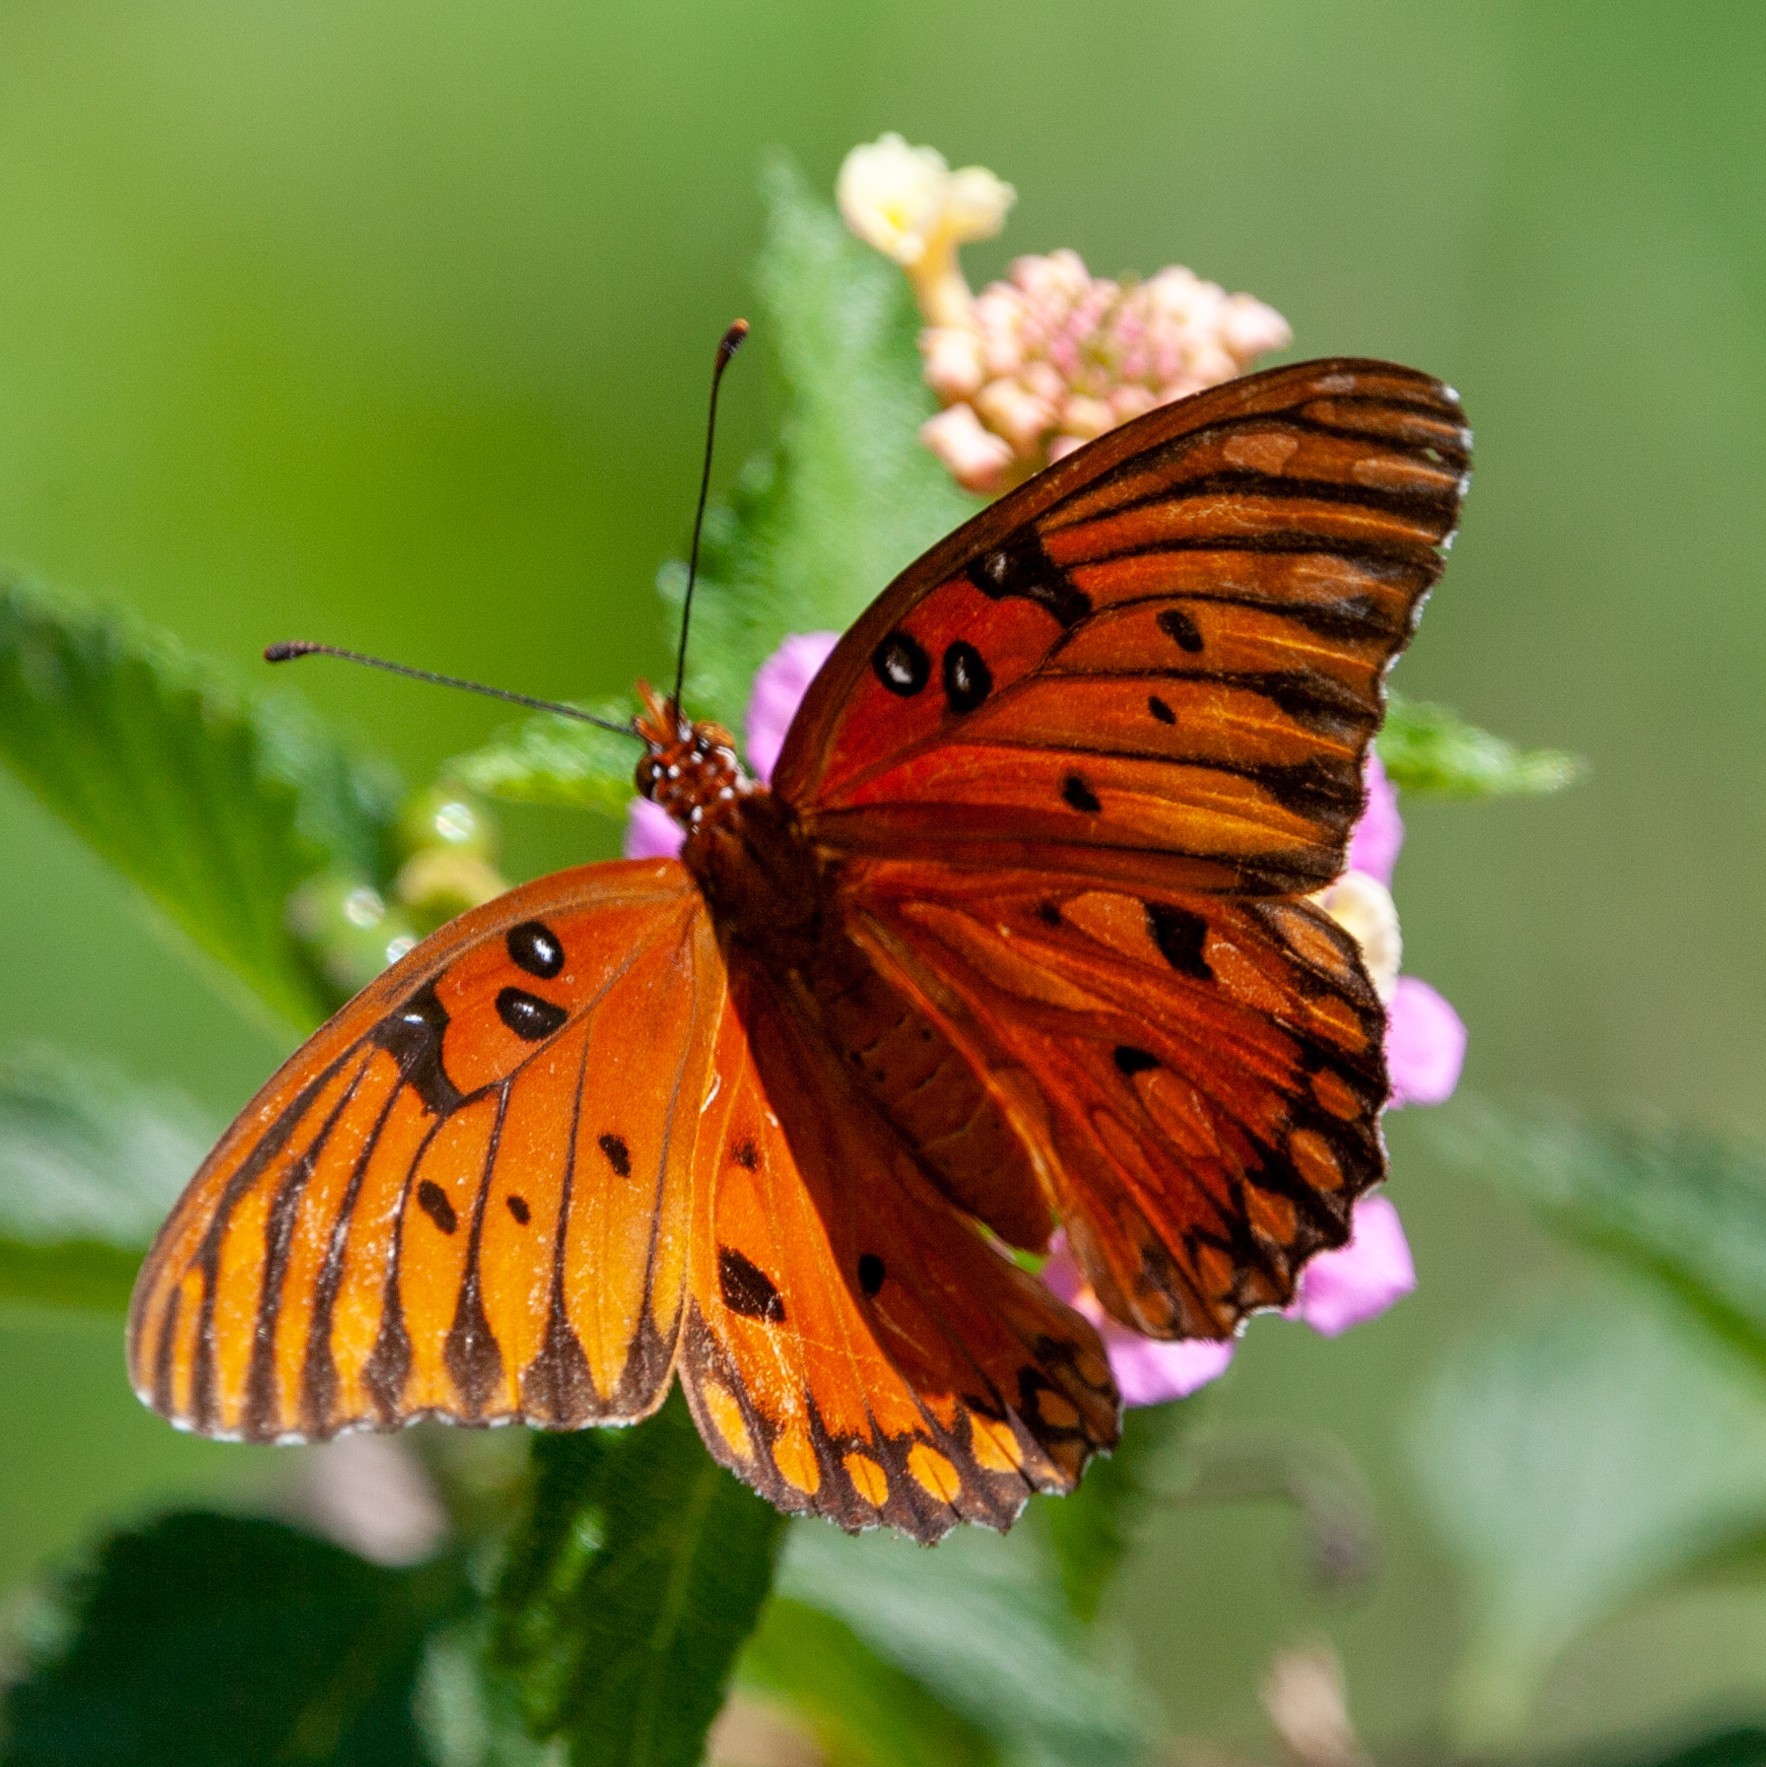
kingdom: Animalia
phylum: Arthropoda
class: Insecta
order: Lepidoptera
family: Nymphalidae
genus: Dione
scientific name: Dione vanillae
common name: Gulf fritillary
